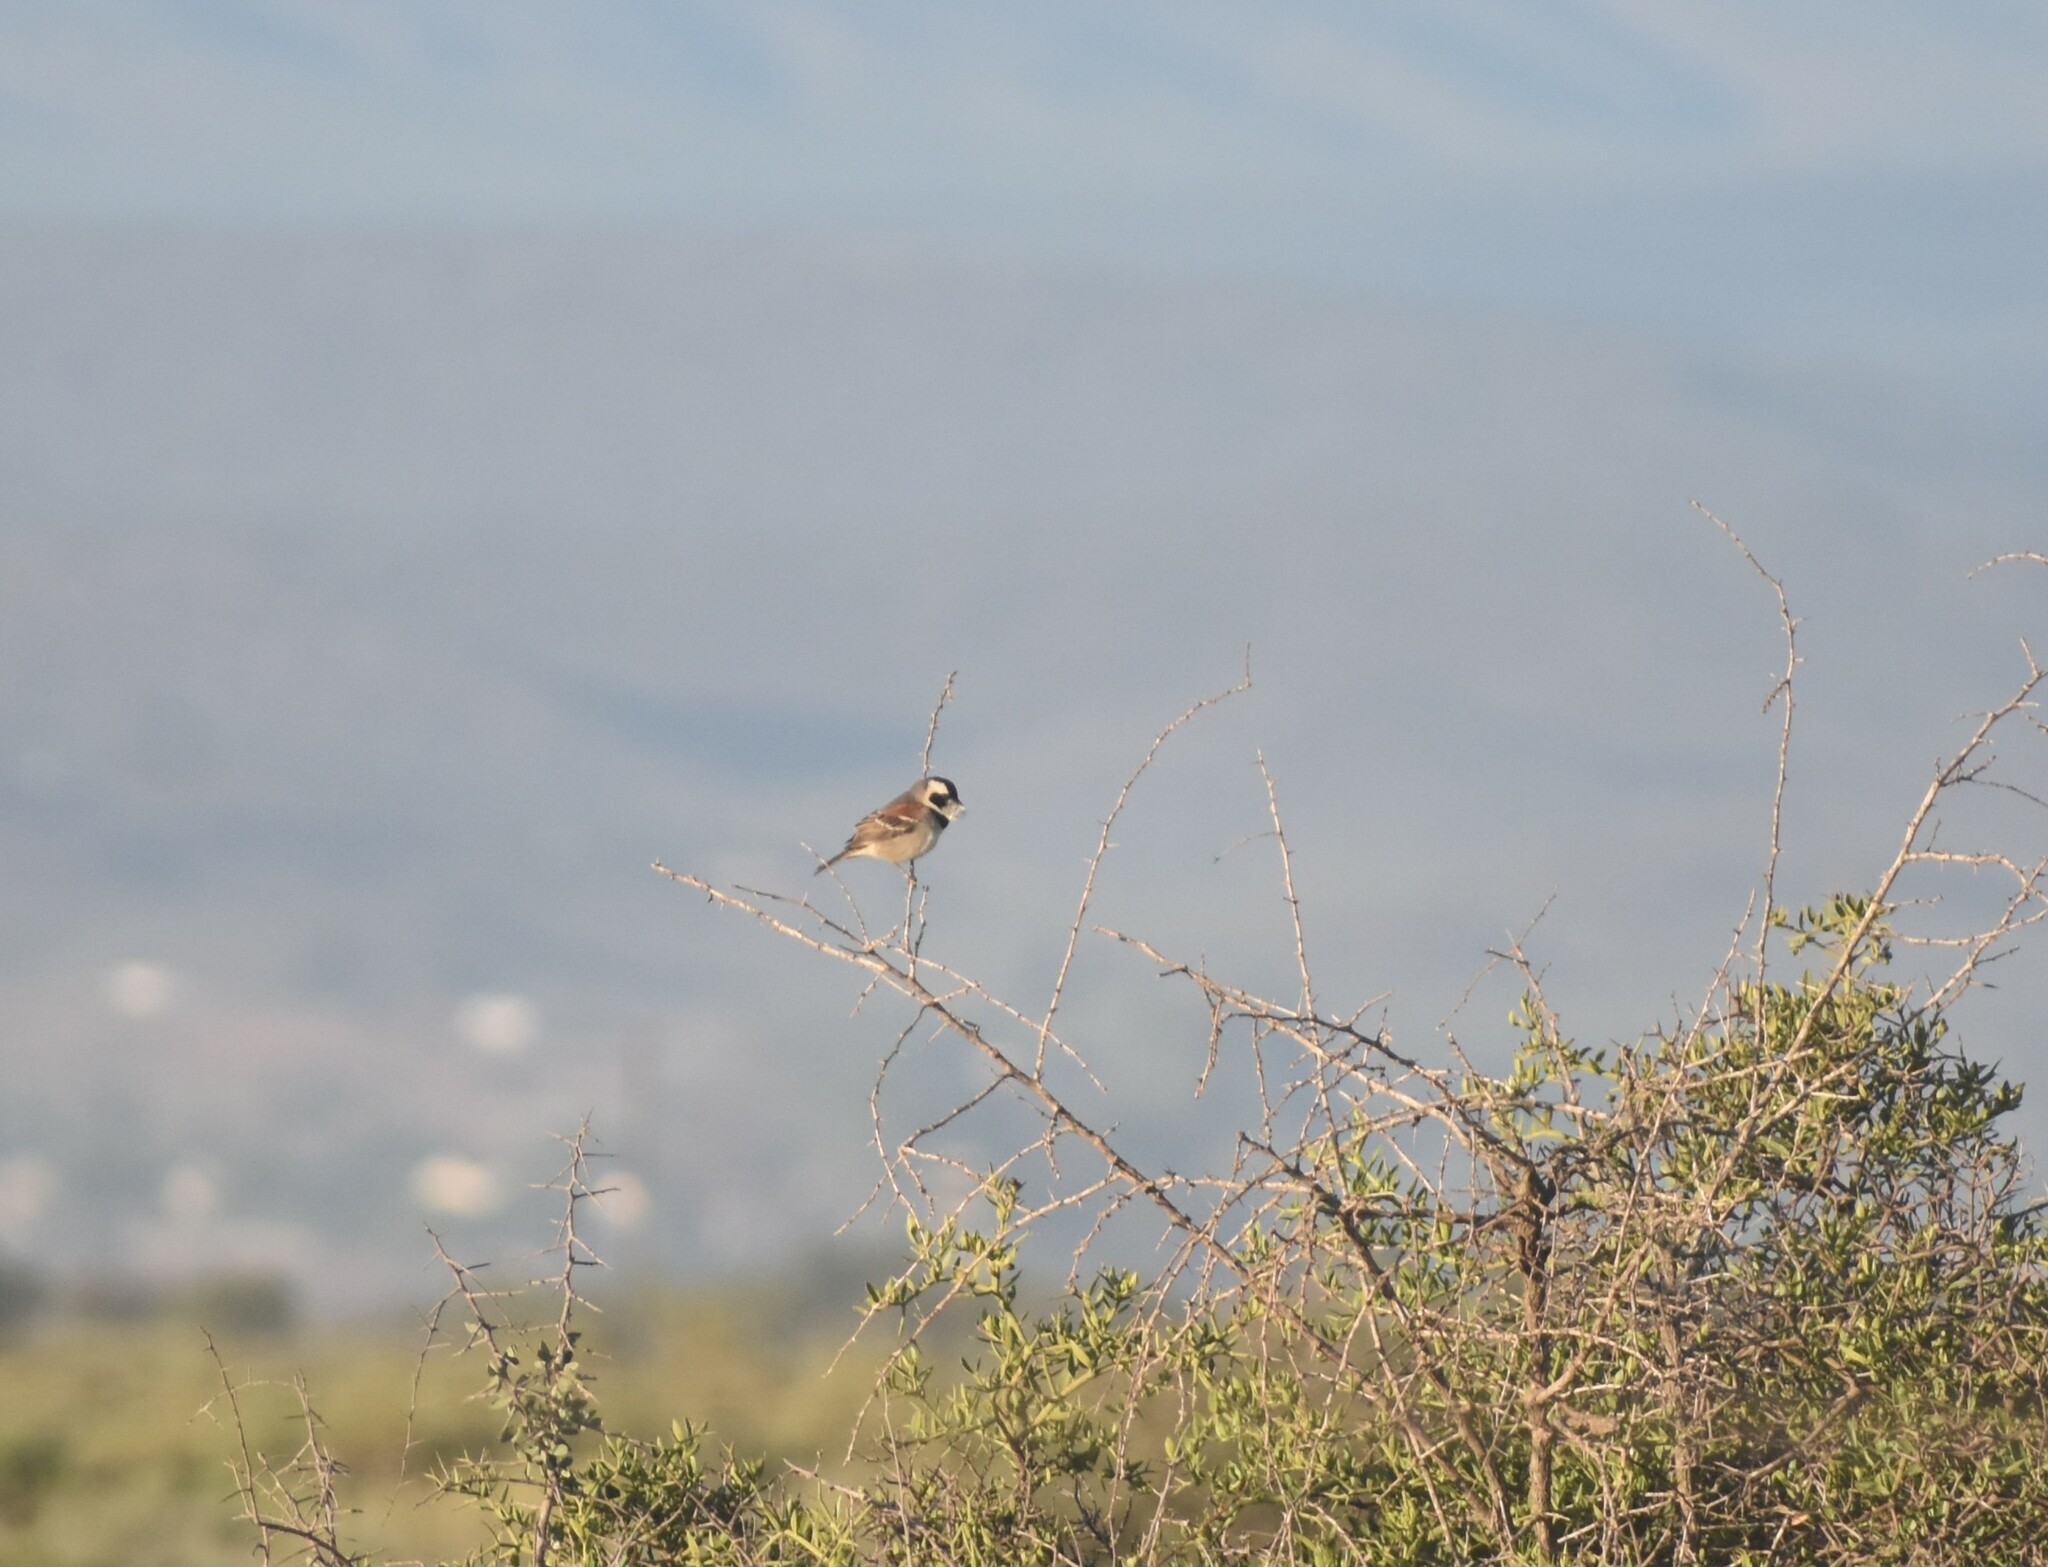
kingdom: Animalia
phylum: Chordata
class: Aves
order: Passeriformes
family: Passeridae
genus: Passer
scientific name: Passer melanurus
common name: Cape sparrow
